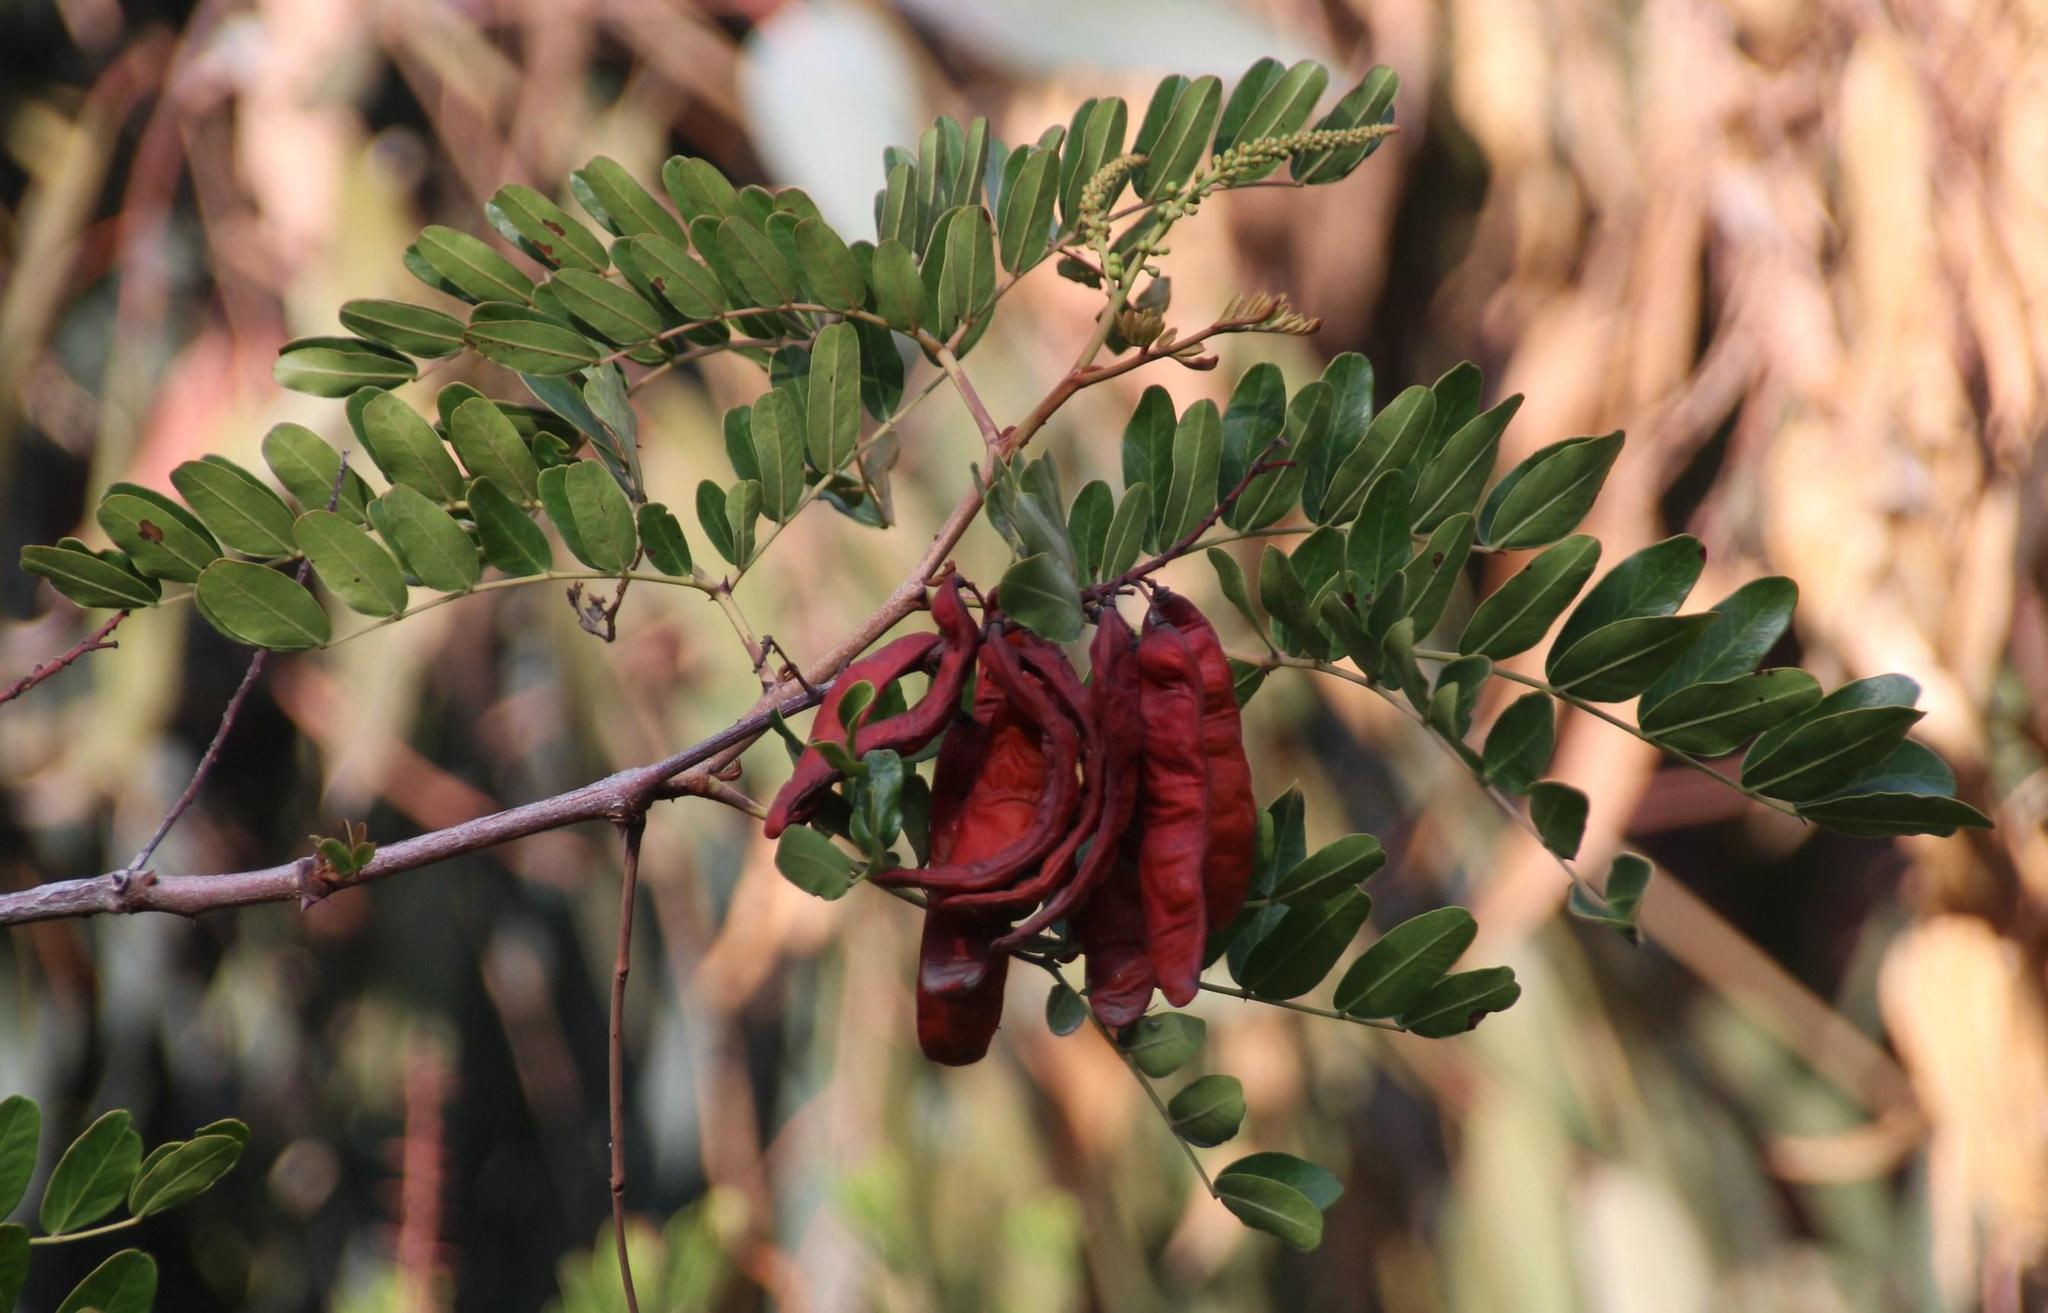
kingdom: Plantae
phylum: Tracheophyta
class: Magnoliopsida
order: Fabales
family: Fabaceae
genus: Tara
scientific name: Tara spinosa
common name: Spiny holdback
